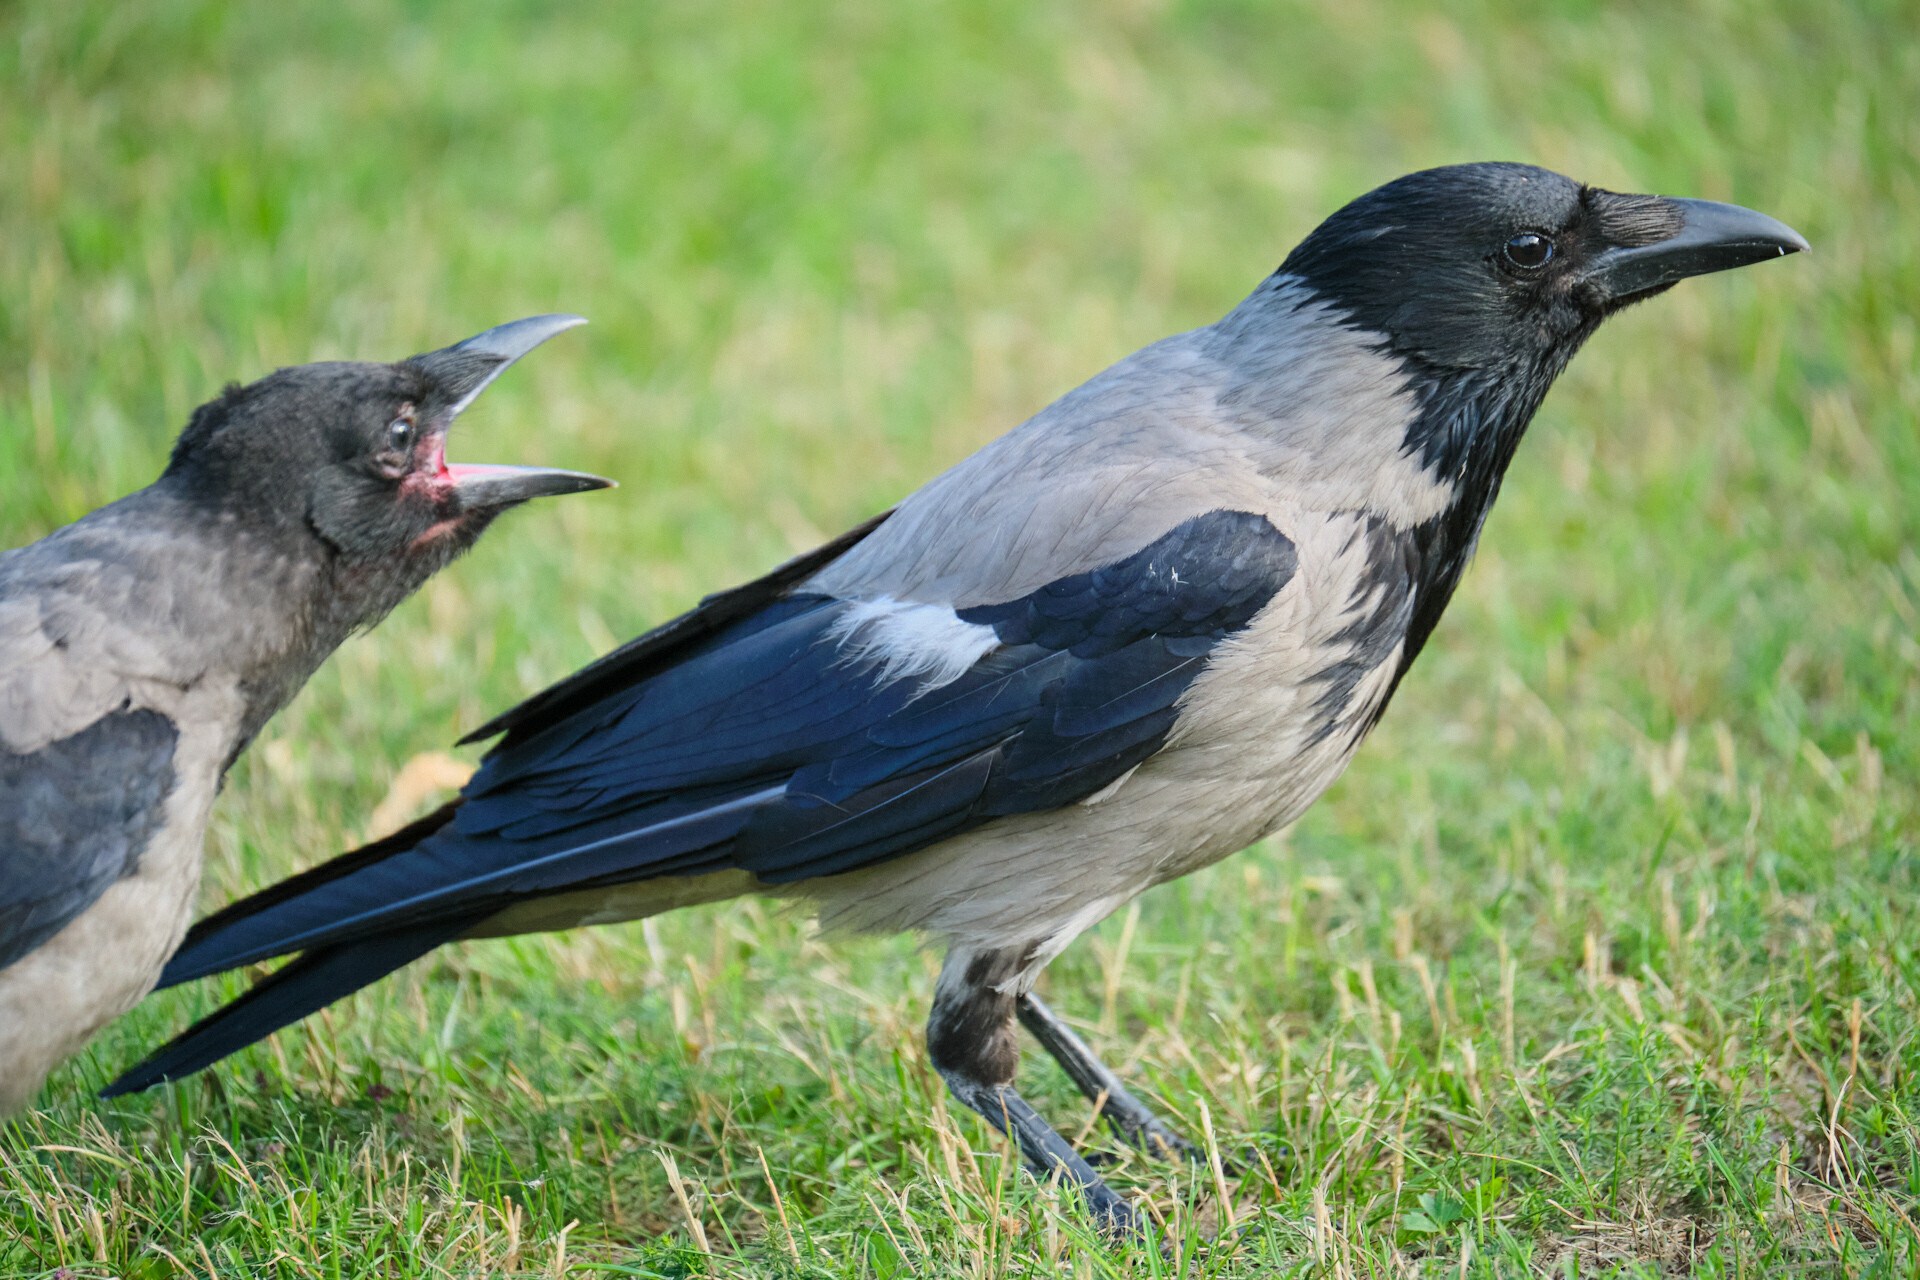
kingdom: Animalia
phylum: Chordata
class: Aves
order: Passeriformes
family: Corvidae
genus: Corvus
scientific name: Corvus cornix
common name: Hooded crow
